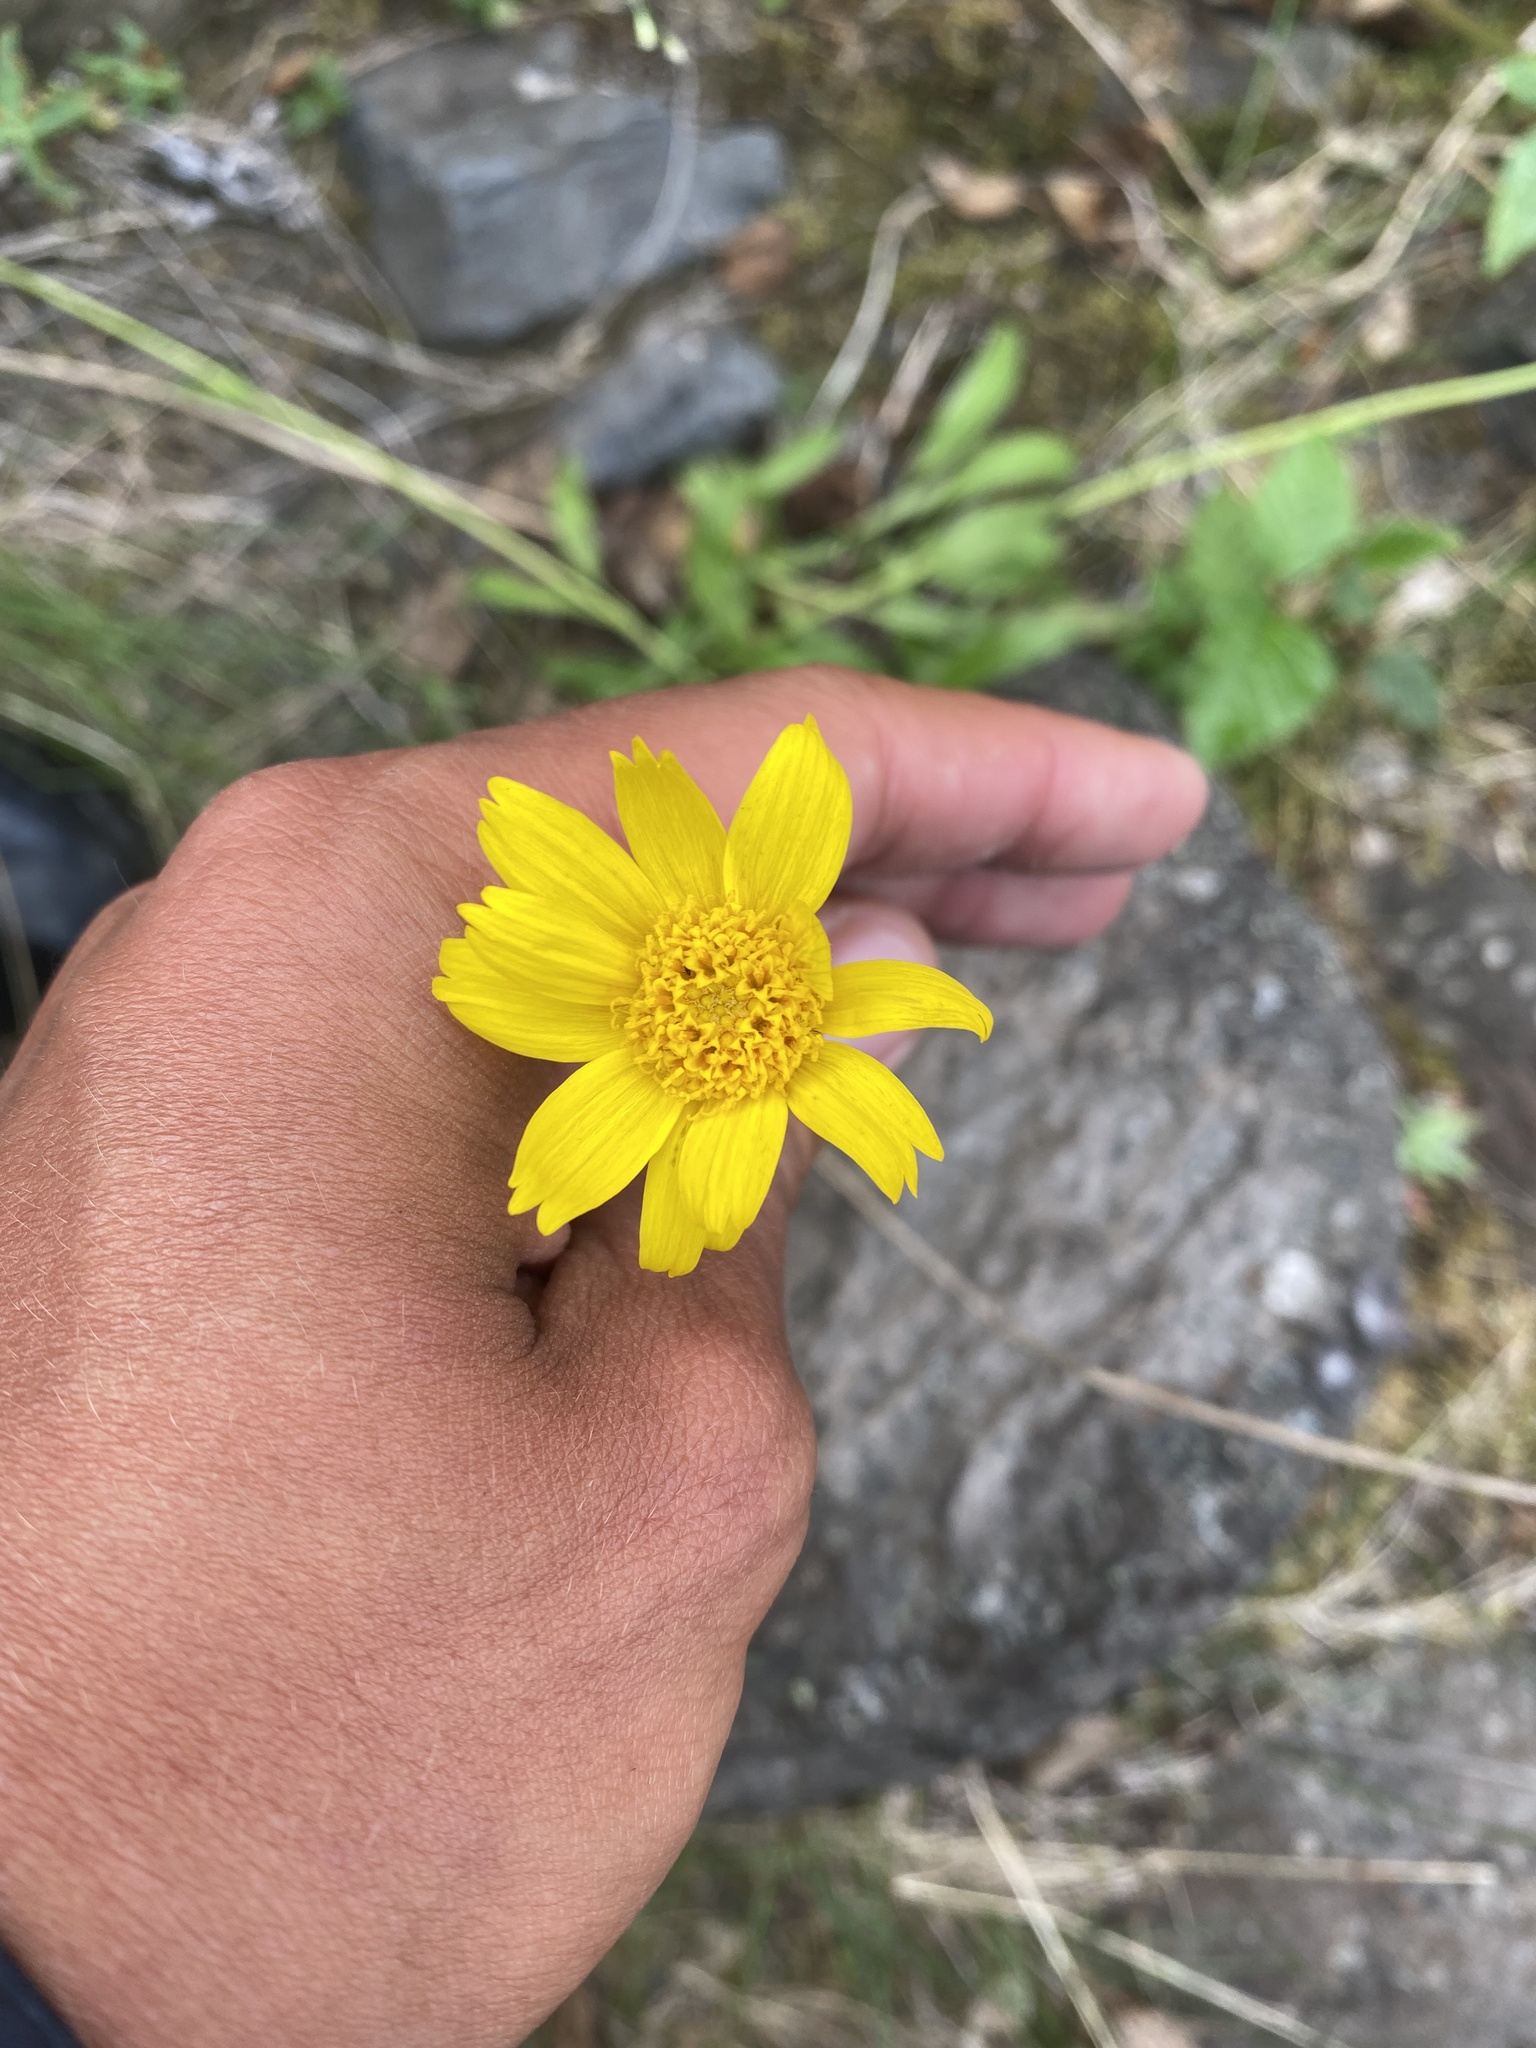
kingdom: Plantae
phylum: Tracheophyta
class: Magnoliopsida
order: Asterales
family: Asteraceae
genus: Arnica
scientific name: Arnica angustifolia
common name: Arctic arnica
